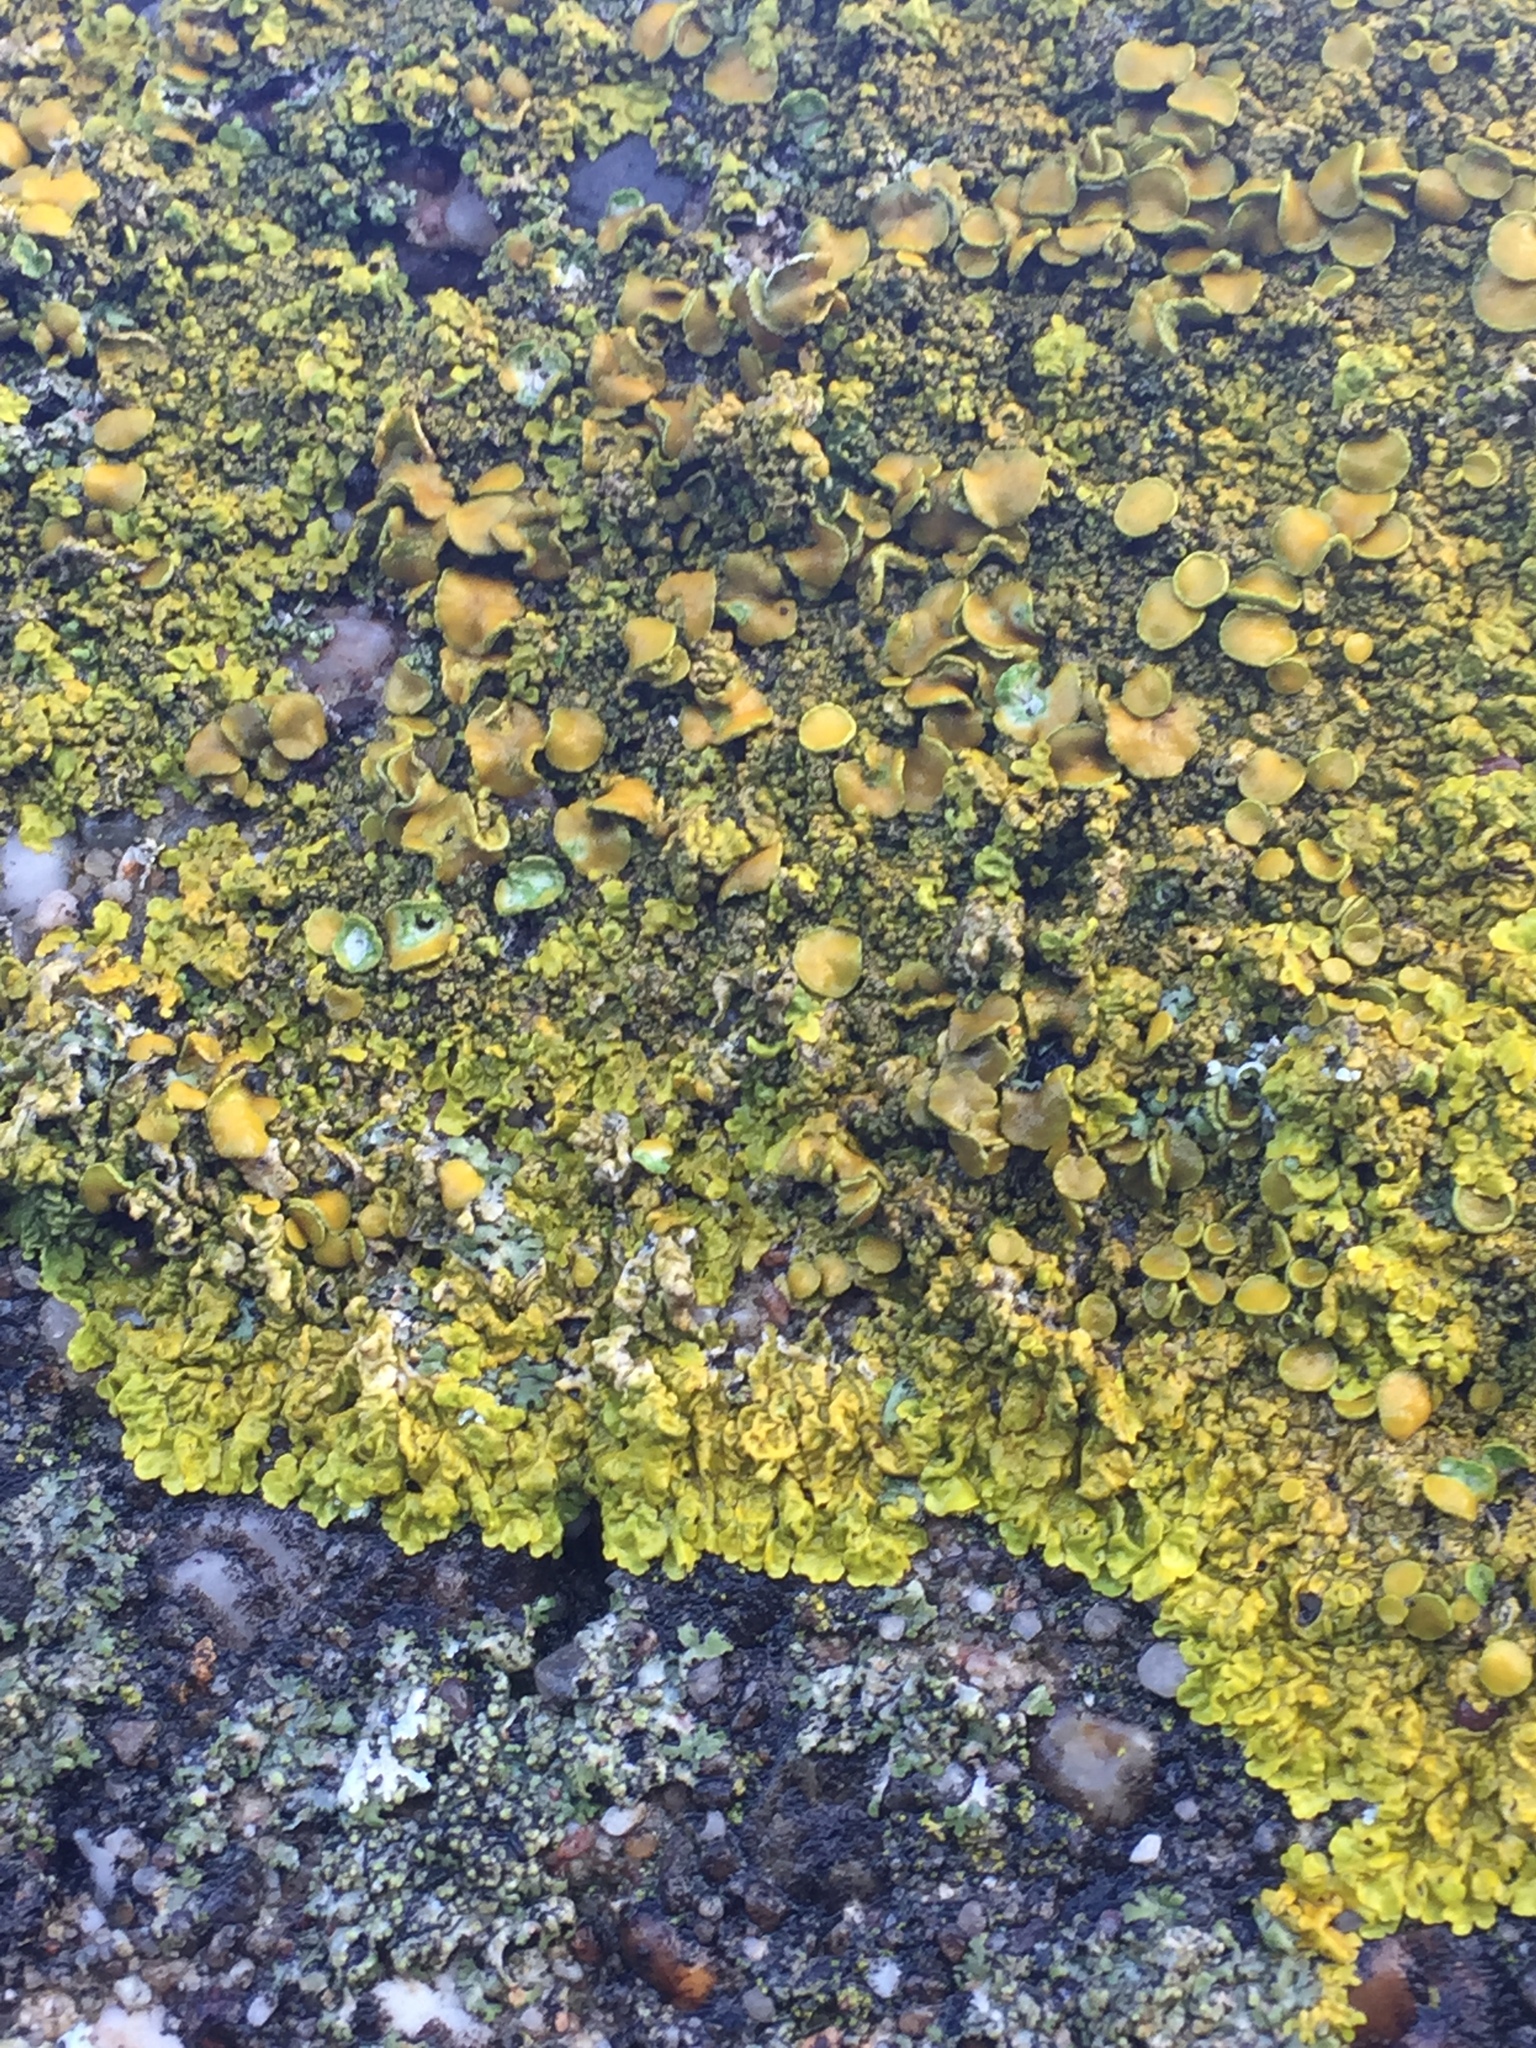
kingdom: Fungi
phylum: Ascomycota
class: Lecanoromycetes
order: Teloschistales
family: Teloschistaceae
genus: Xanthoria
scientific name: Xanthoria parietina
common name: Common orange lichen
